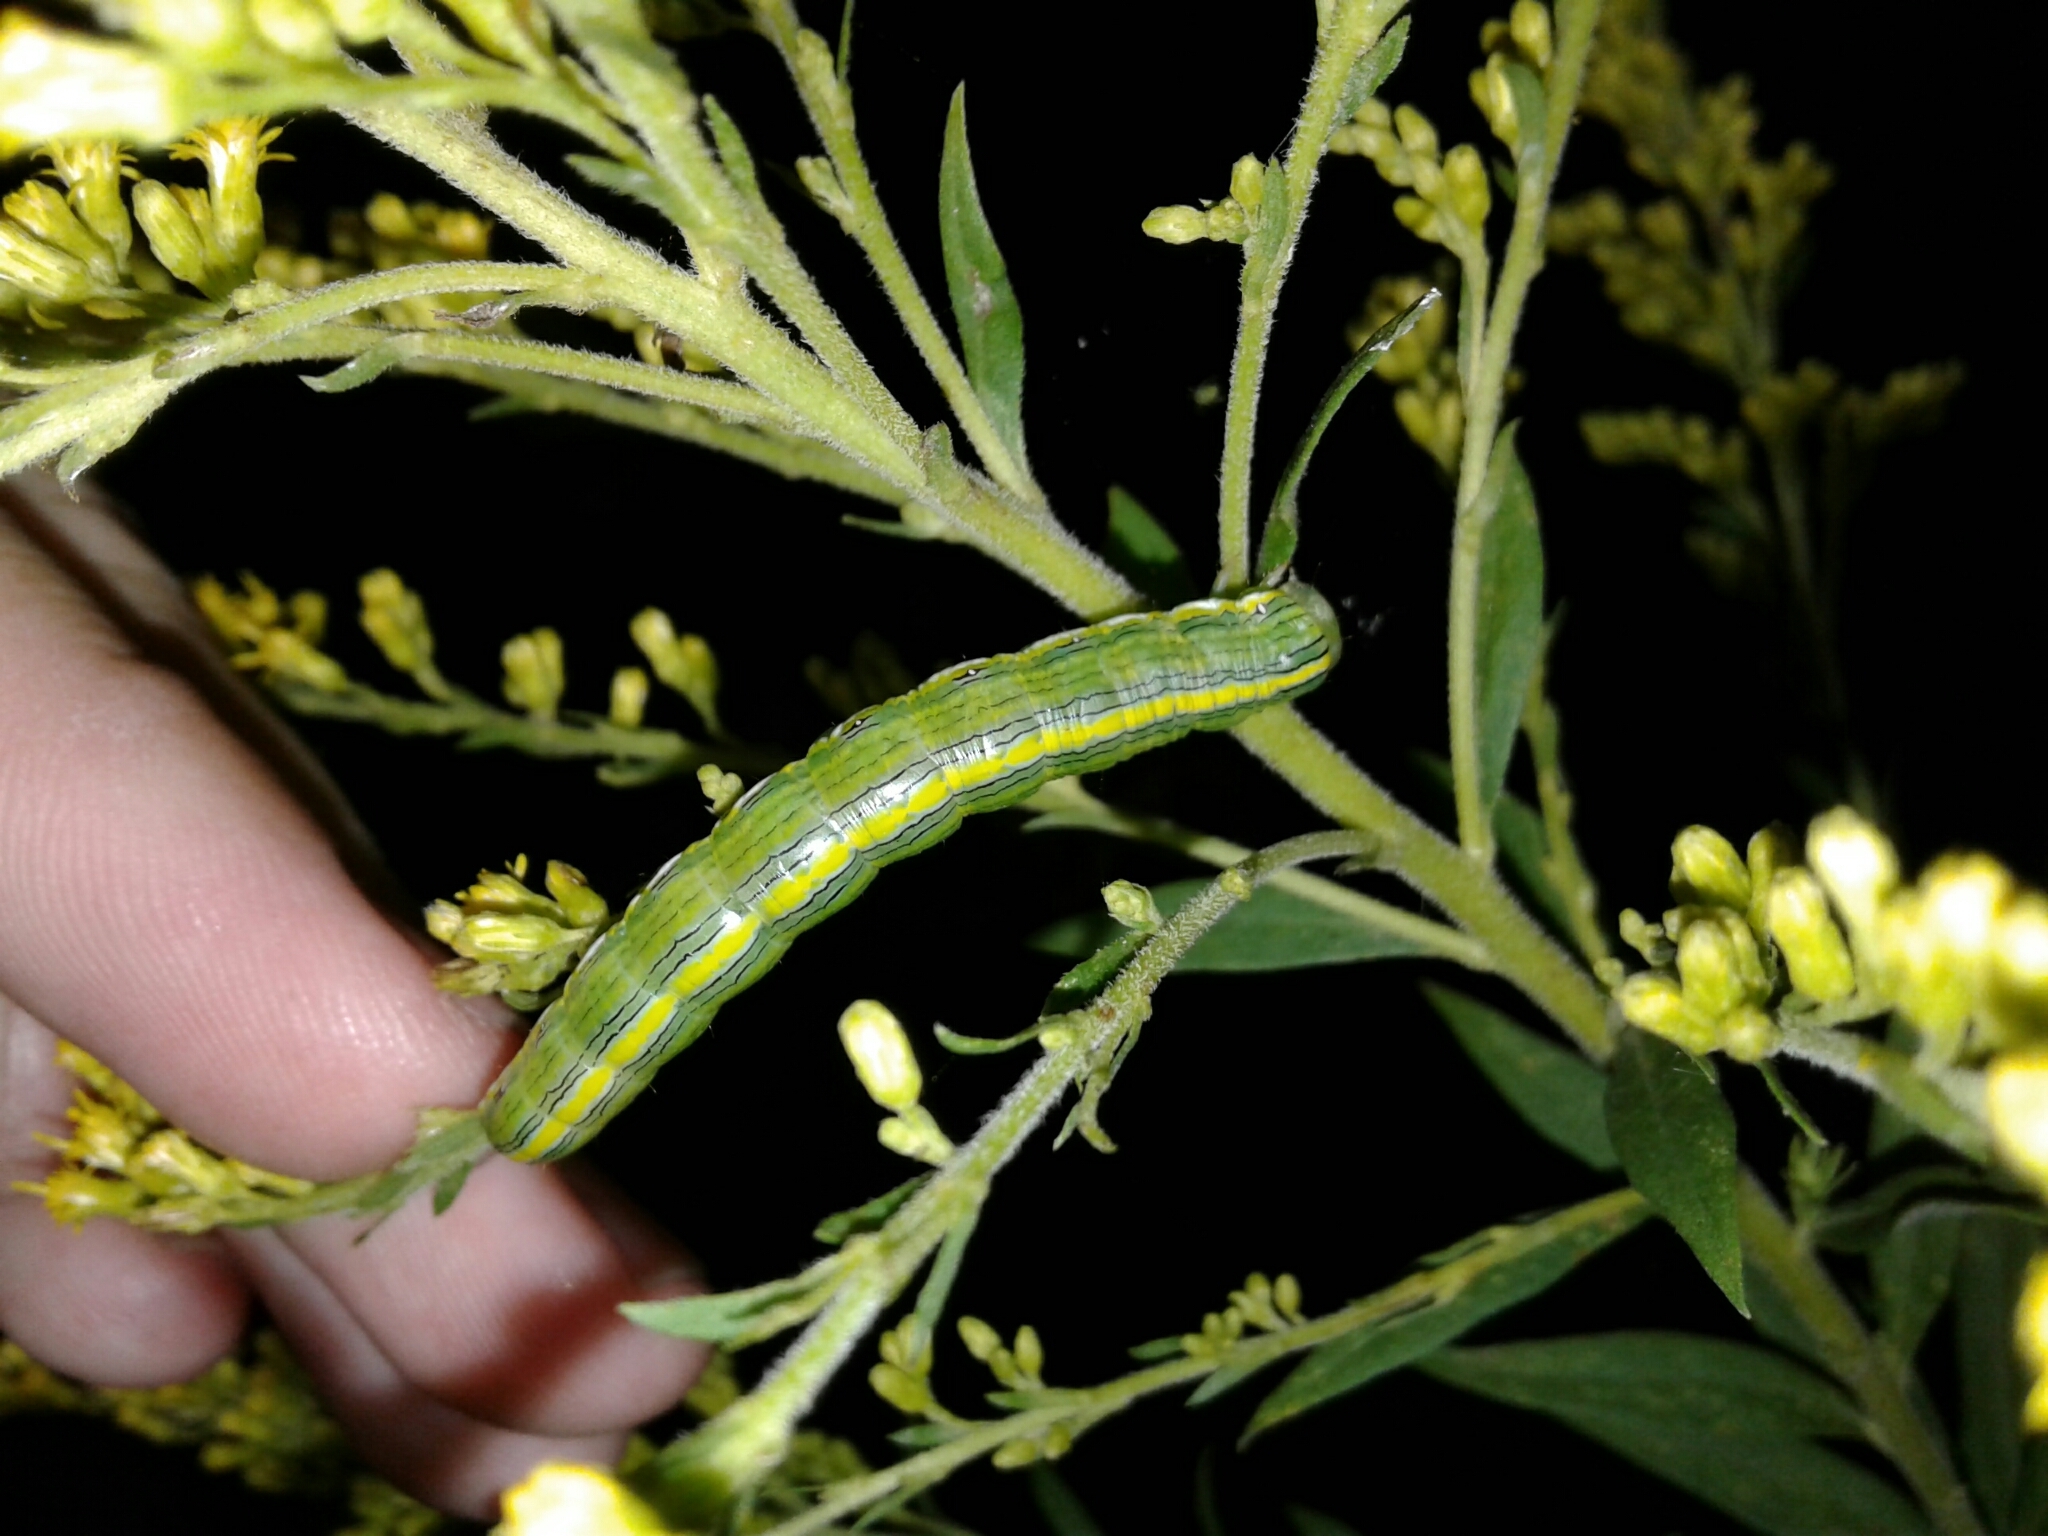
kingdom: Animalia
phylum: Arthropoda
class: Insecta
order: Lepidoptera
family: Noctuidae
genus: Cucullia
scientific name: Cucullia asteroides
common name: Asteroid moth
